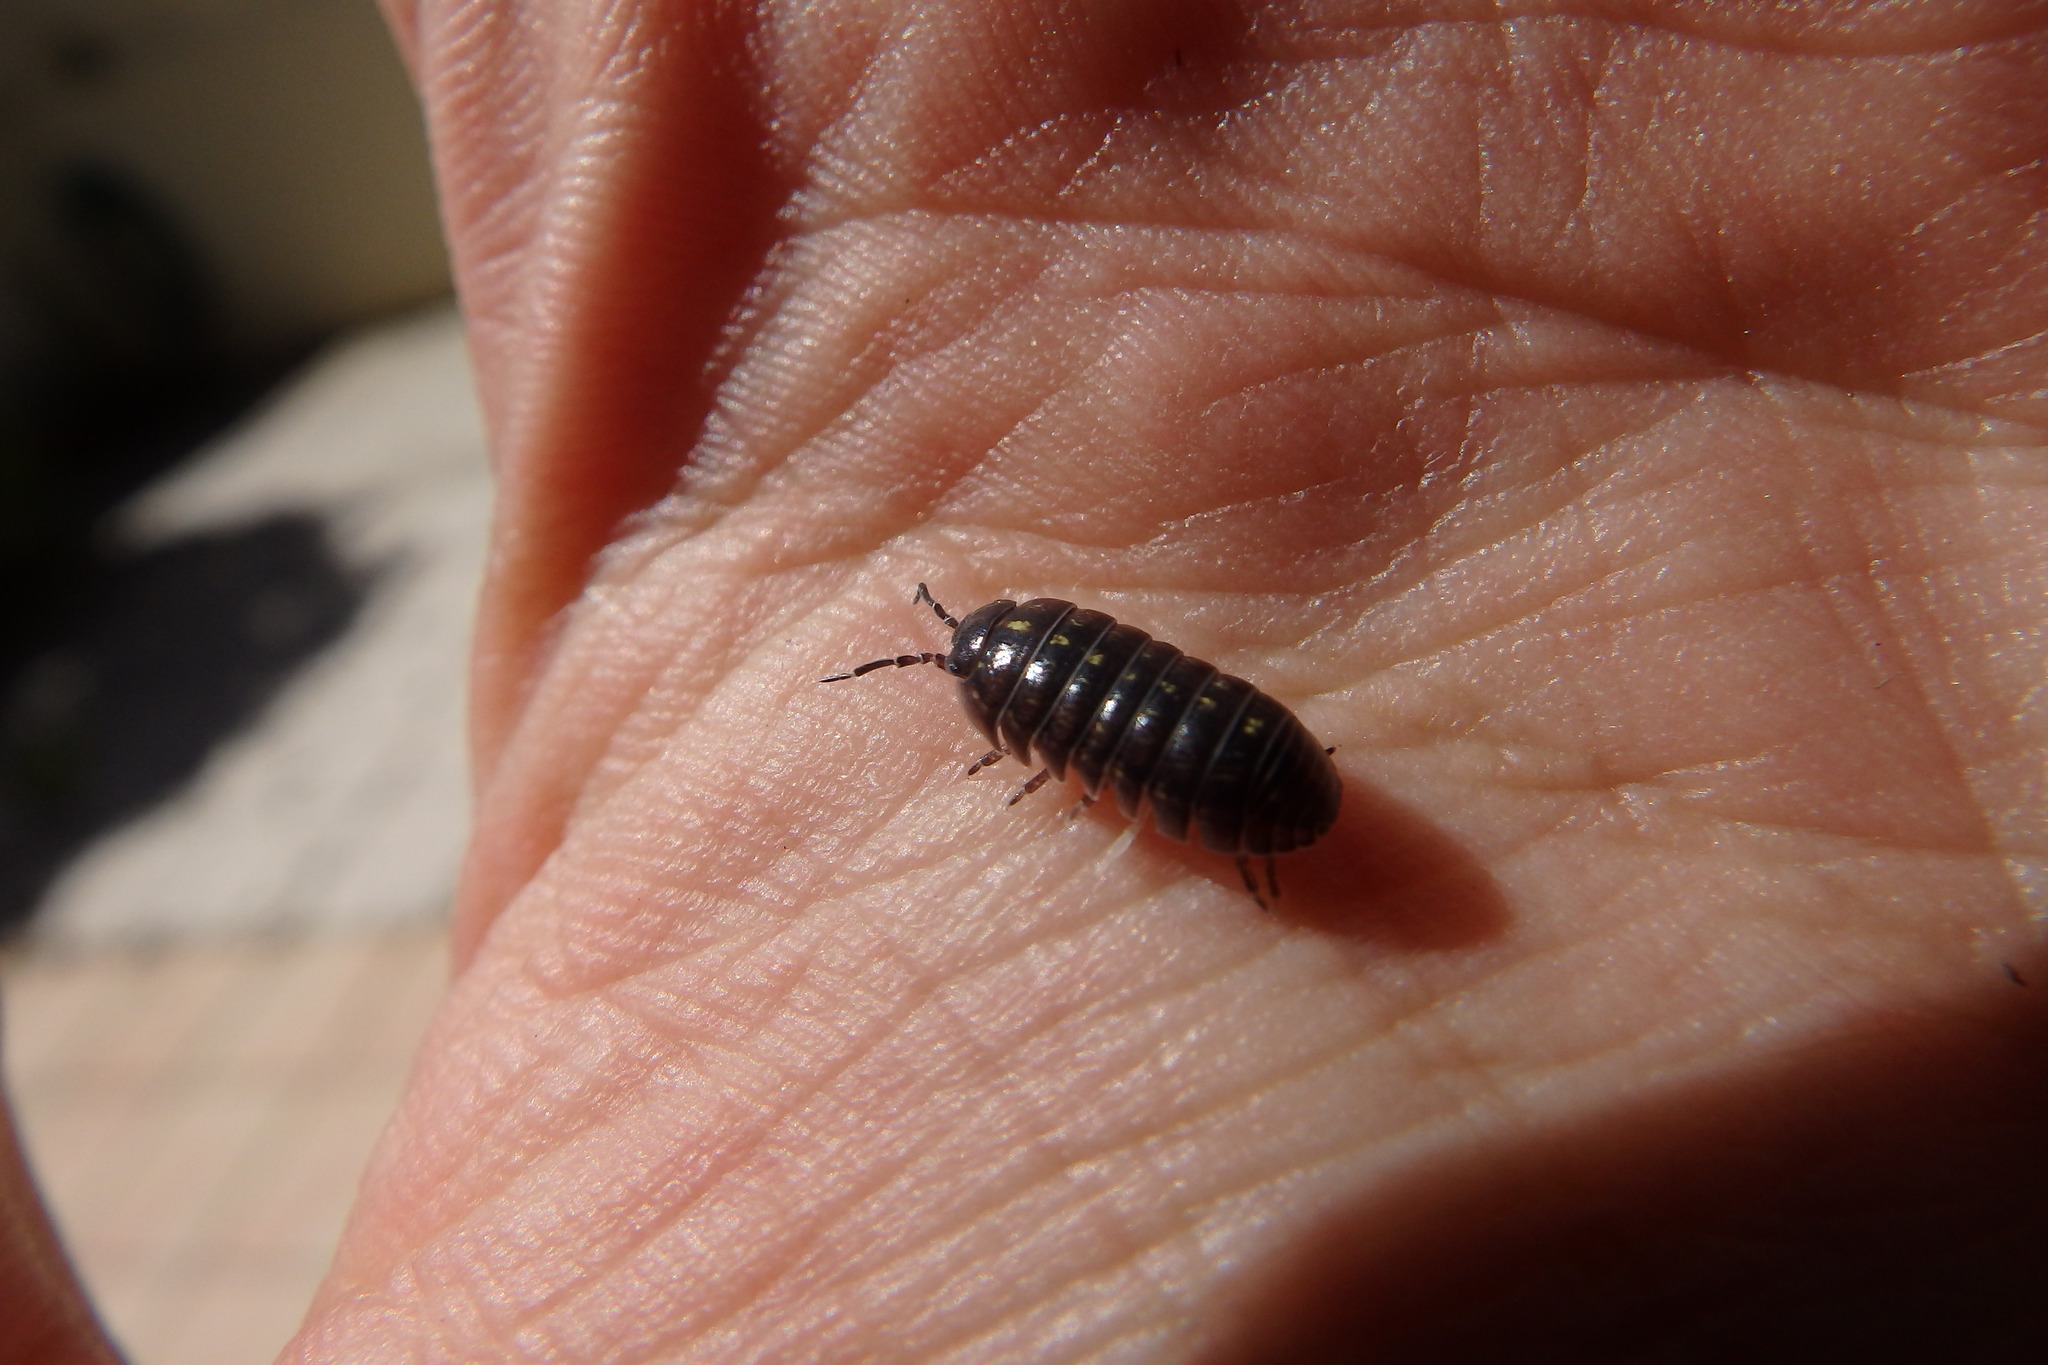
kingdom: Animalia
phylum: Arthropoda
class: Malacostraca
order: Isopoda
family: Armadillidiidae
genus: Armadillidium
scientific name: Armadillidium vulgare
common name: Common pill woodlouse
